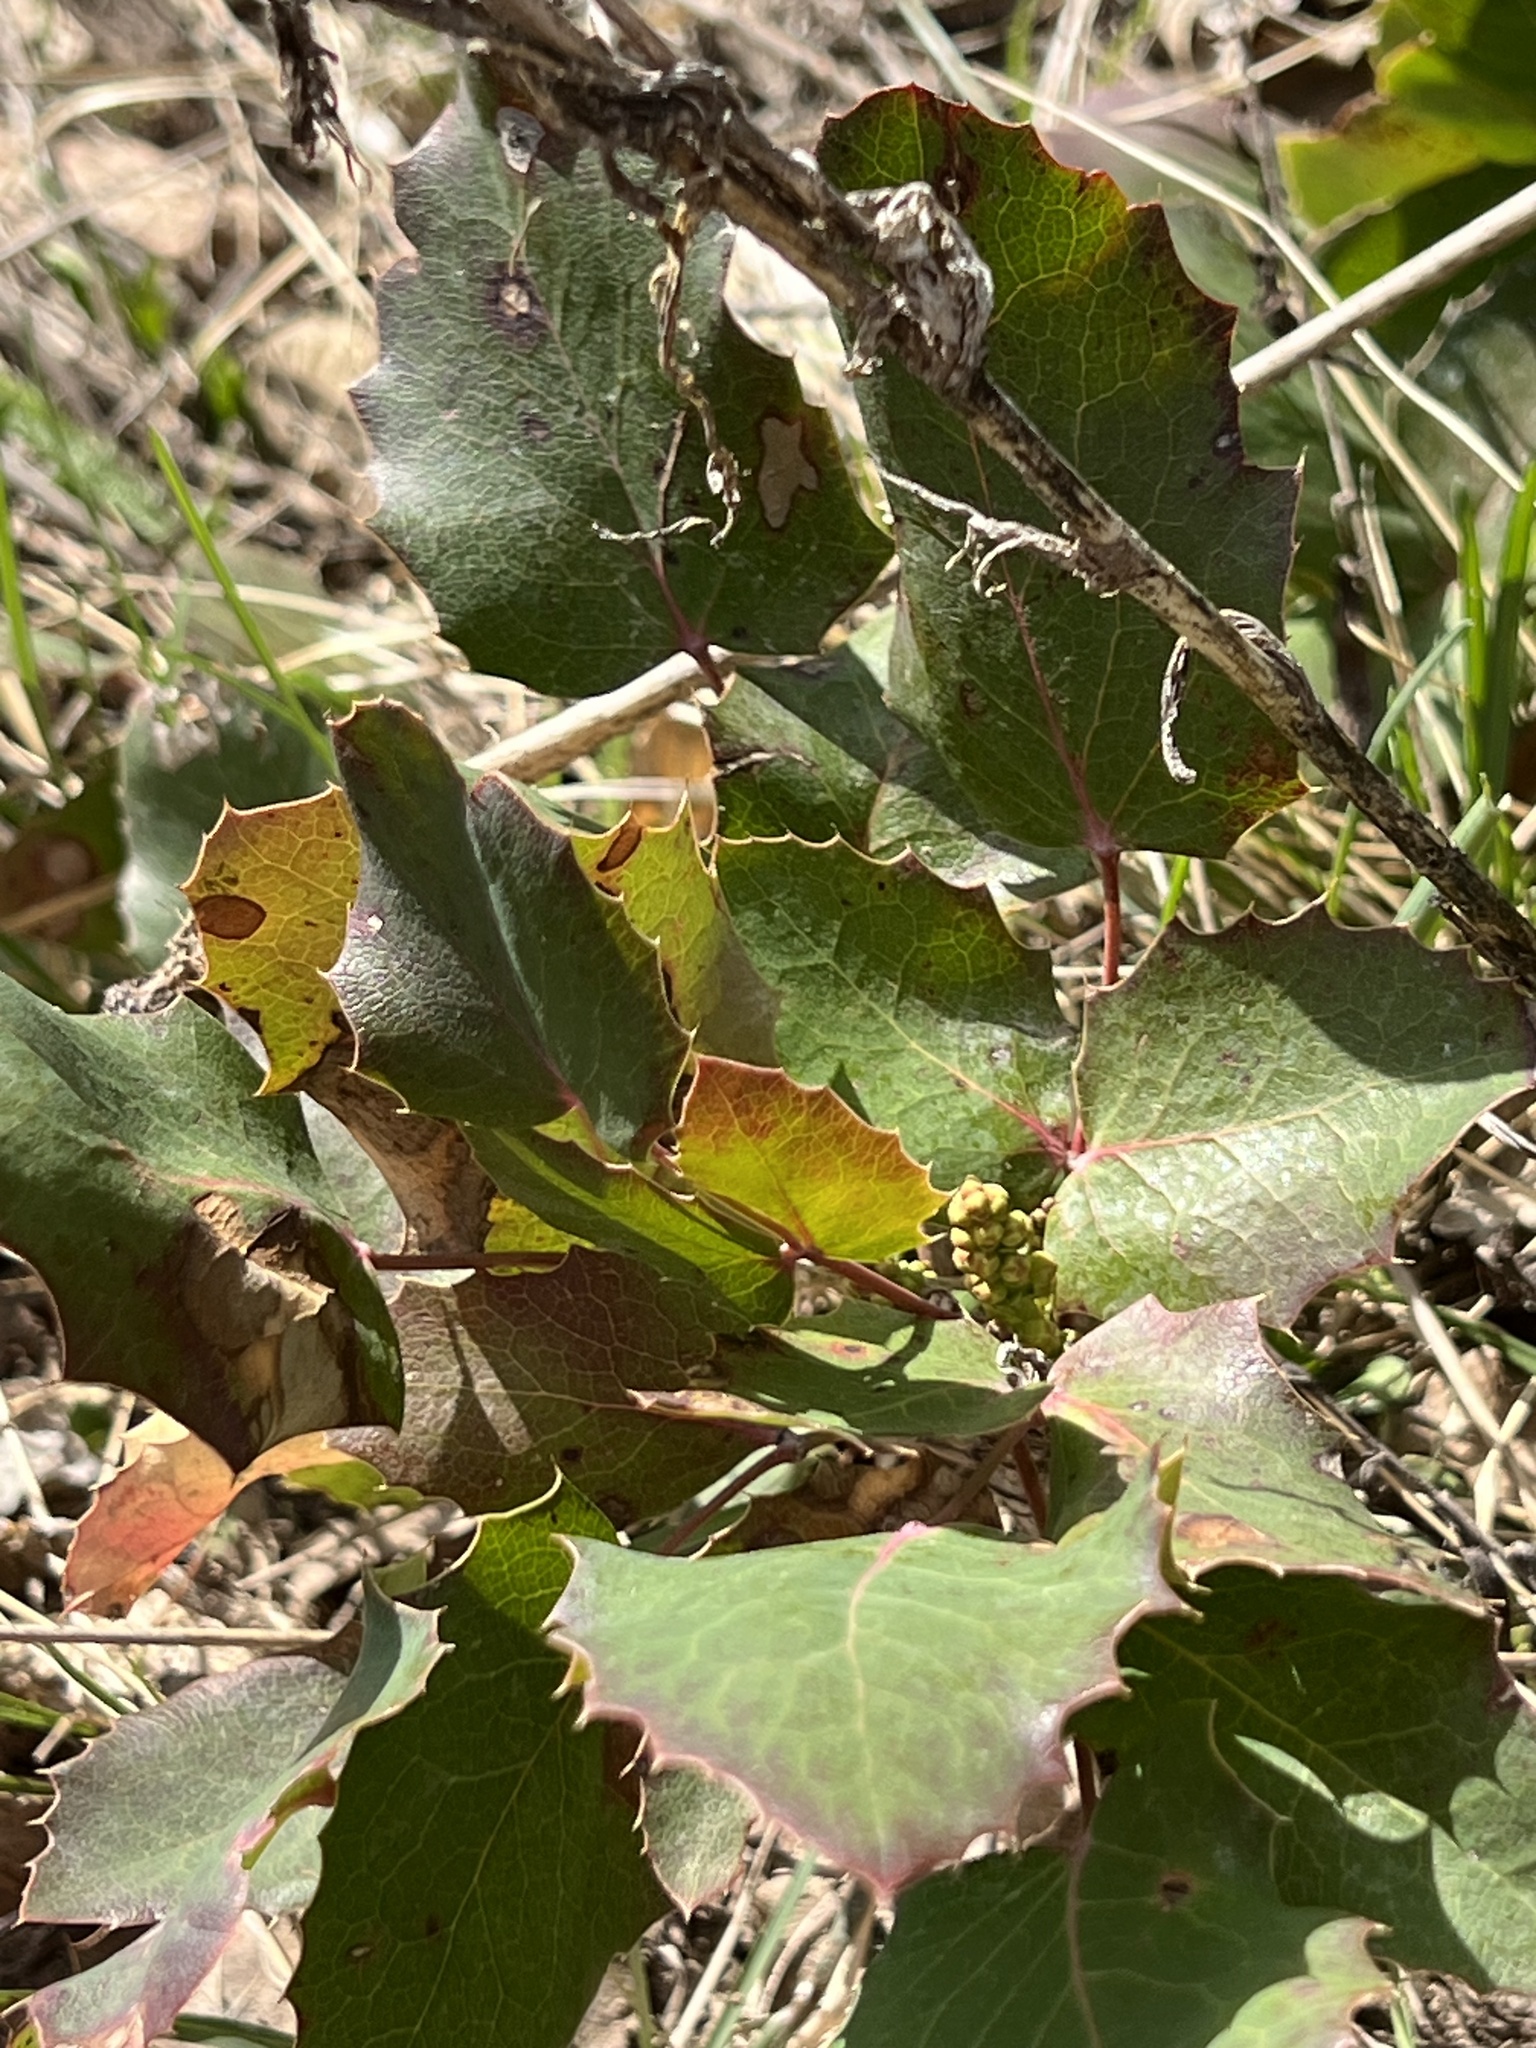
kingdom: Plantae
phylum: Tracheophyta
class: Magnoliopsida
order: Ranunculales
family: Berberidaceae
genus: Mahonia
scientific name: Mahonia repens
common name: Creeping oregon-grape
